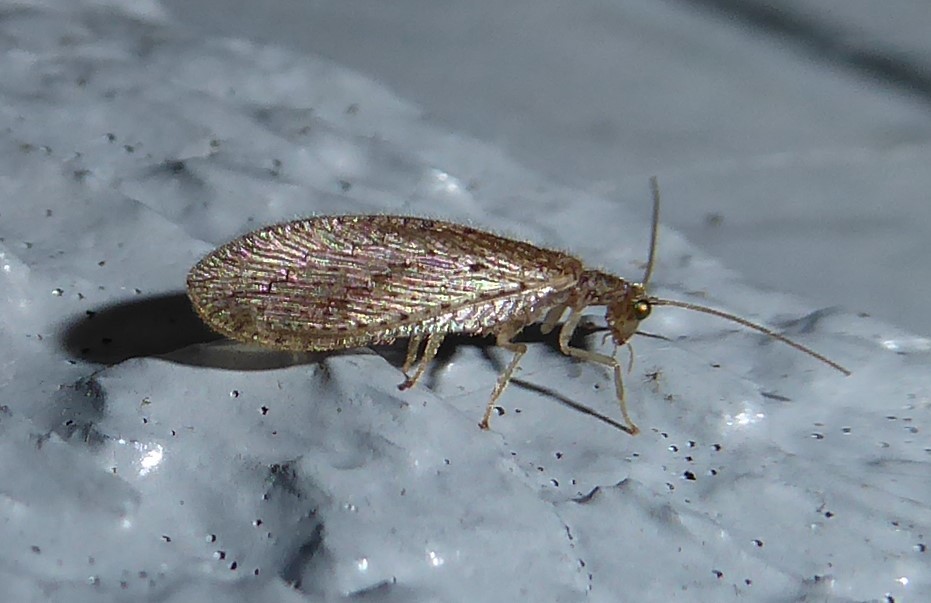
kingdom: Animalia
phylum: Arthropoda
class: Insecta
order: Neuroptera
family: Hemerobiidae
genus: Micromus
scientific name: Micromus tasmaniae
